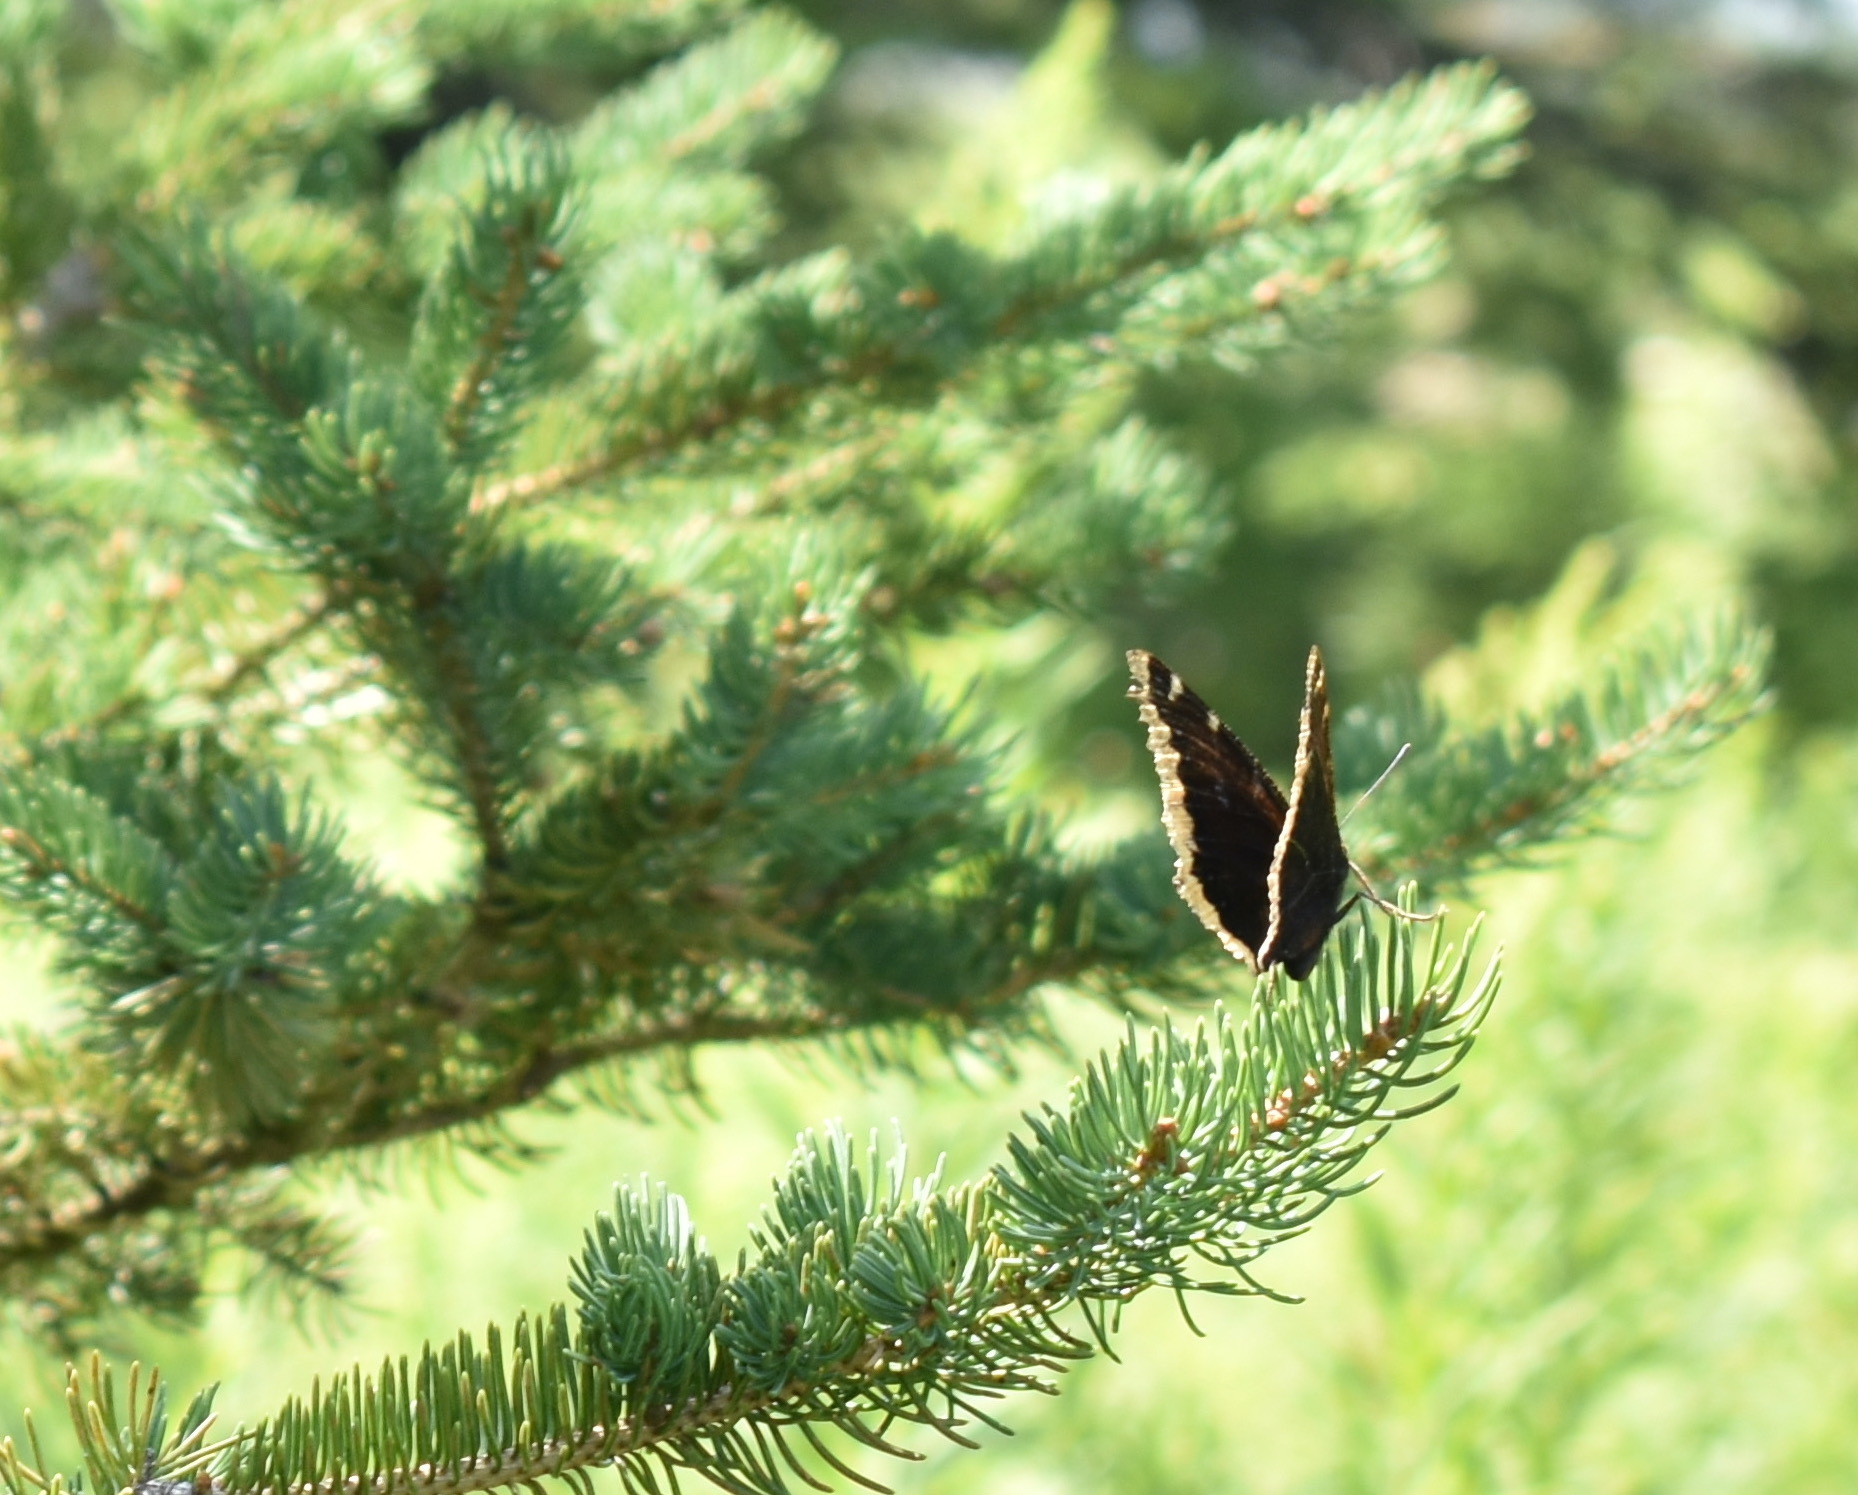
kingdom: Animalia
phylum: Arthropoda
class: Insecta
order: Lepidoptera
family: Nymphalidae
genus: Nymphalis
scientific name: Nymphalis antiopa
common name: Camberwell beauty
